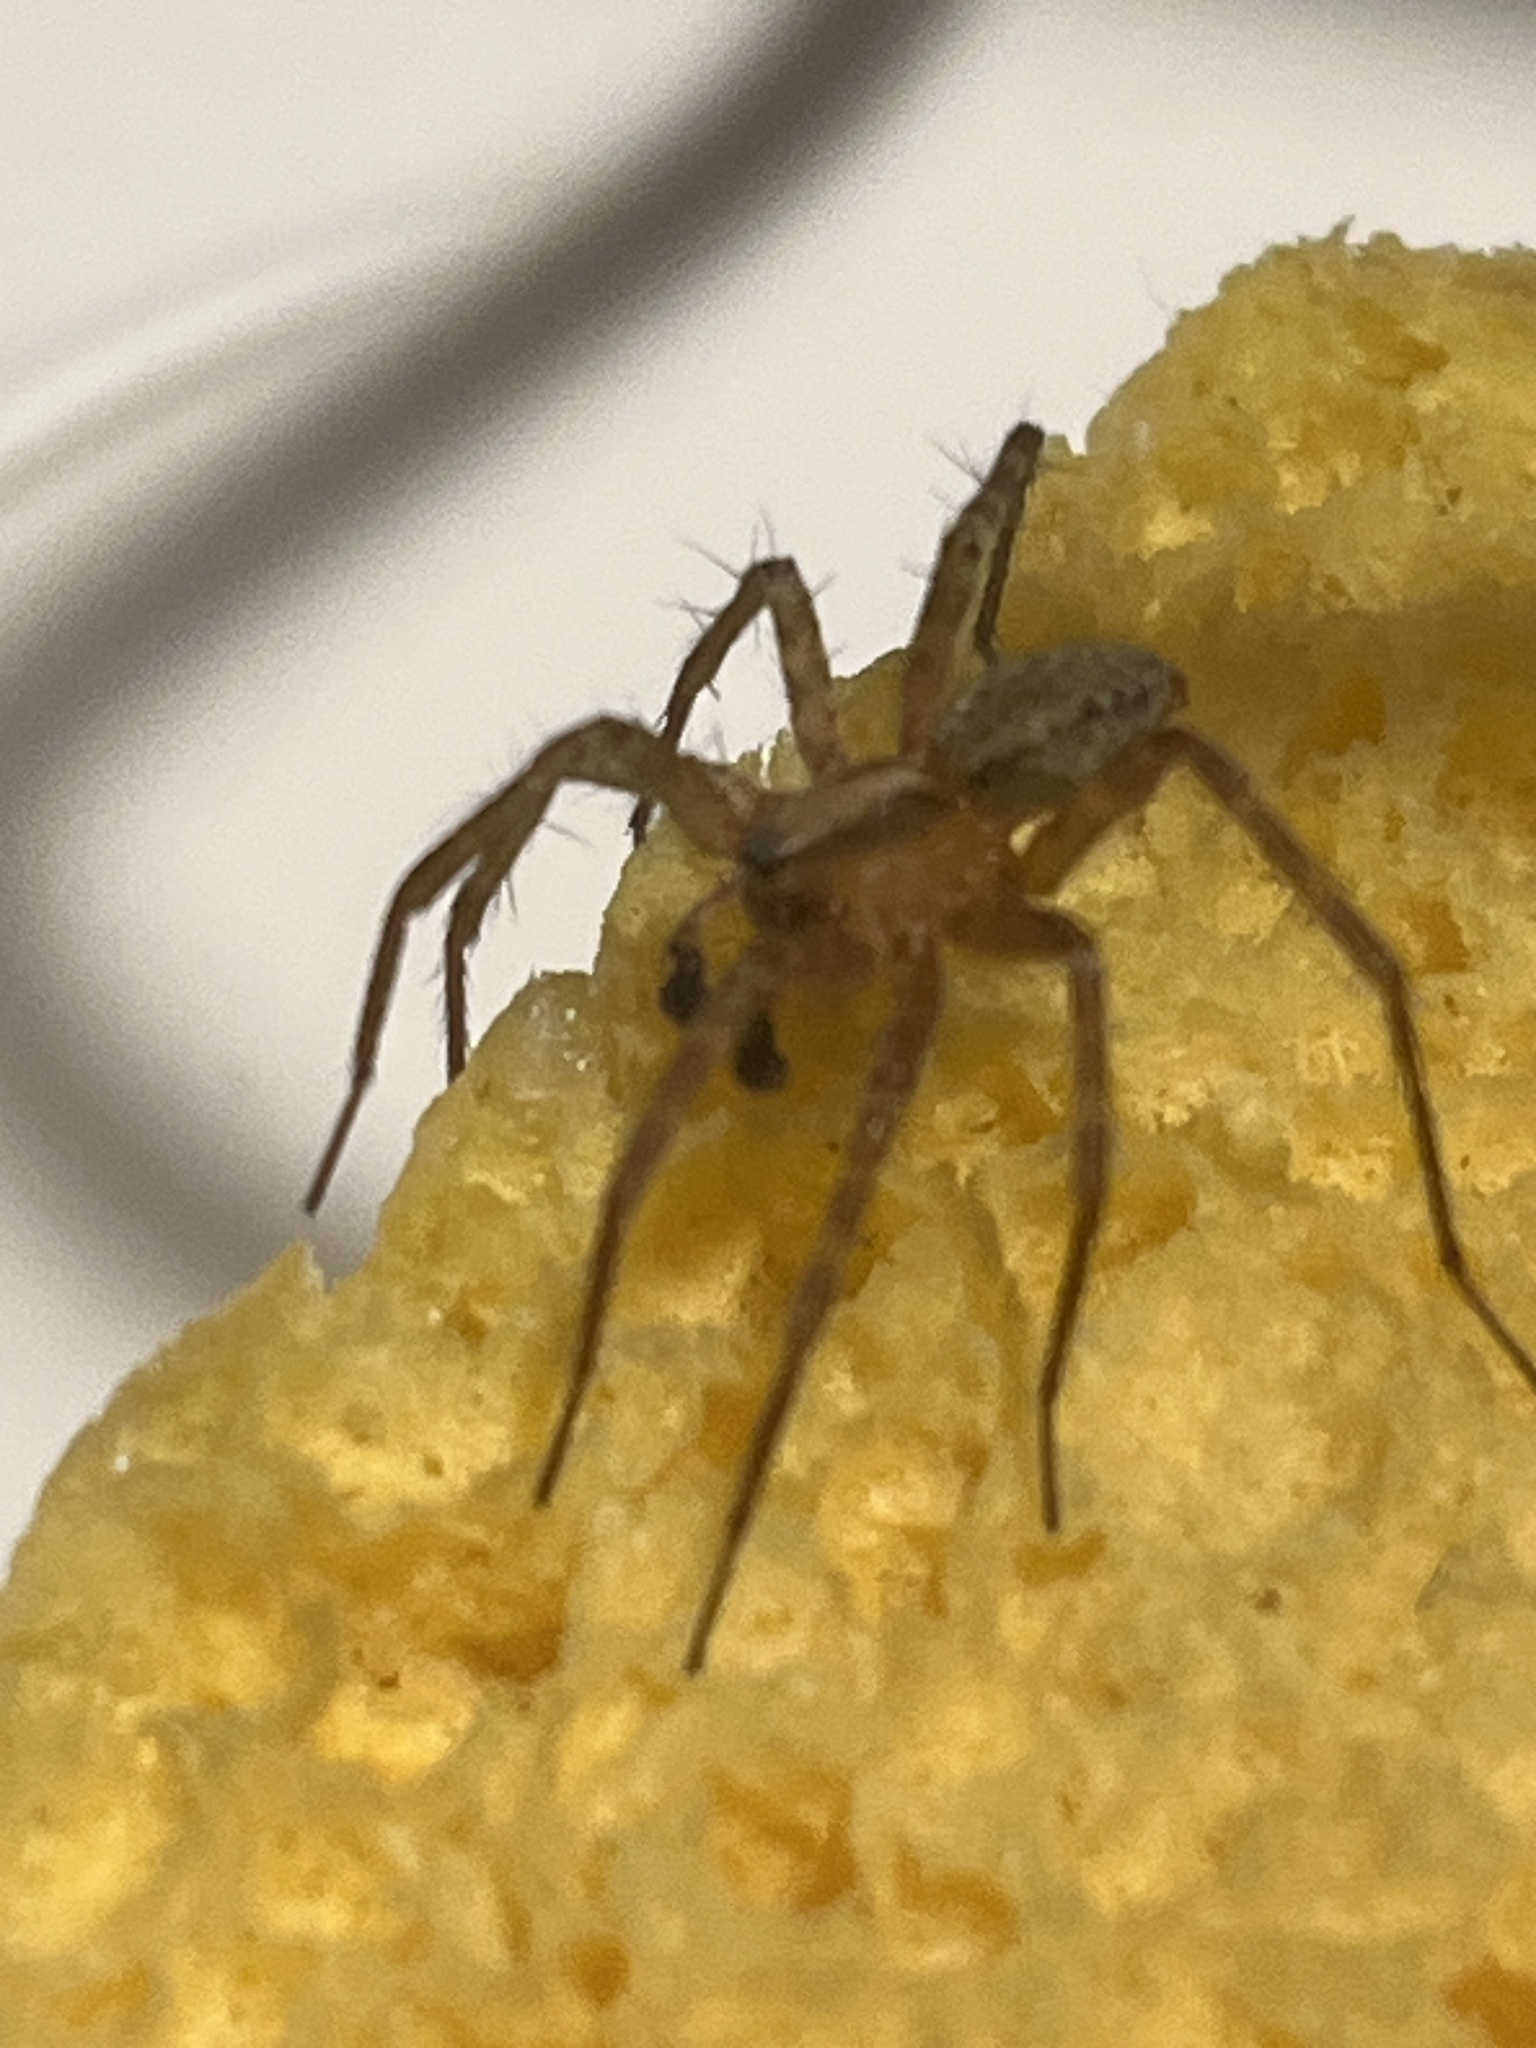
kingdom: Animalia
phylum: Arthropoda
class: Arachnida
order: Araneae
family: Agelenidae
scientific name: Agelenidae
